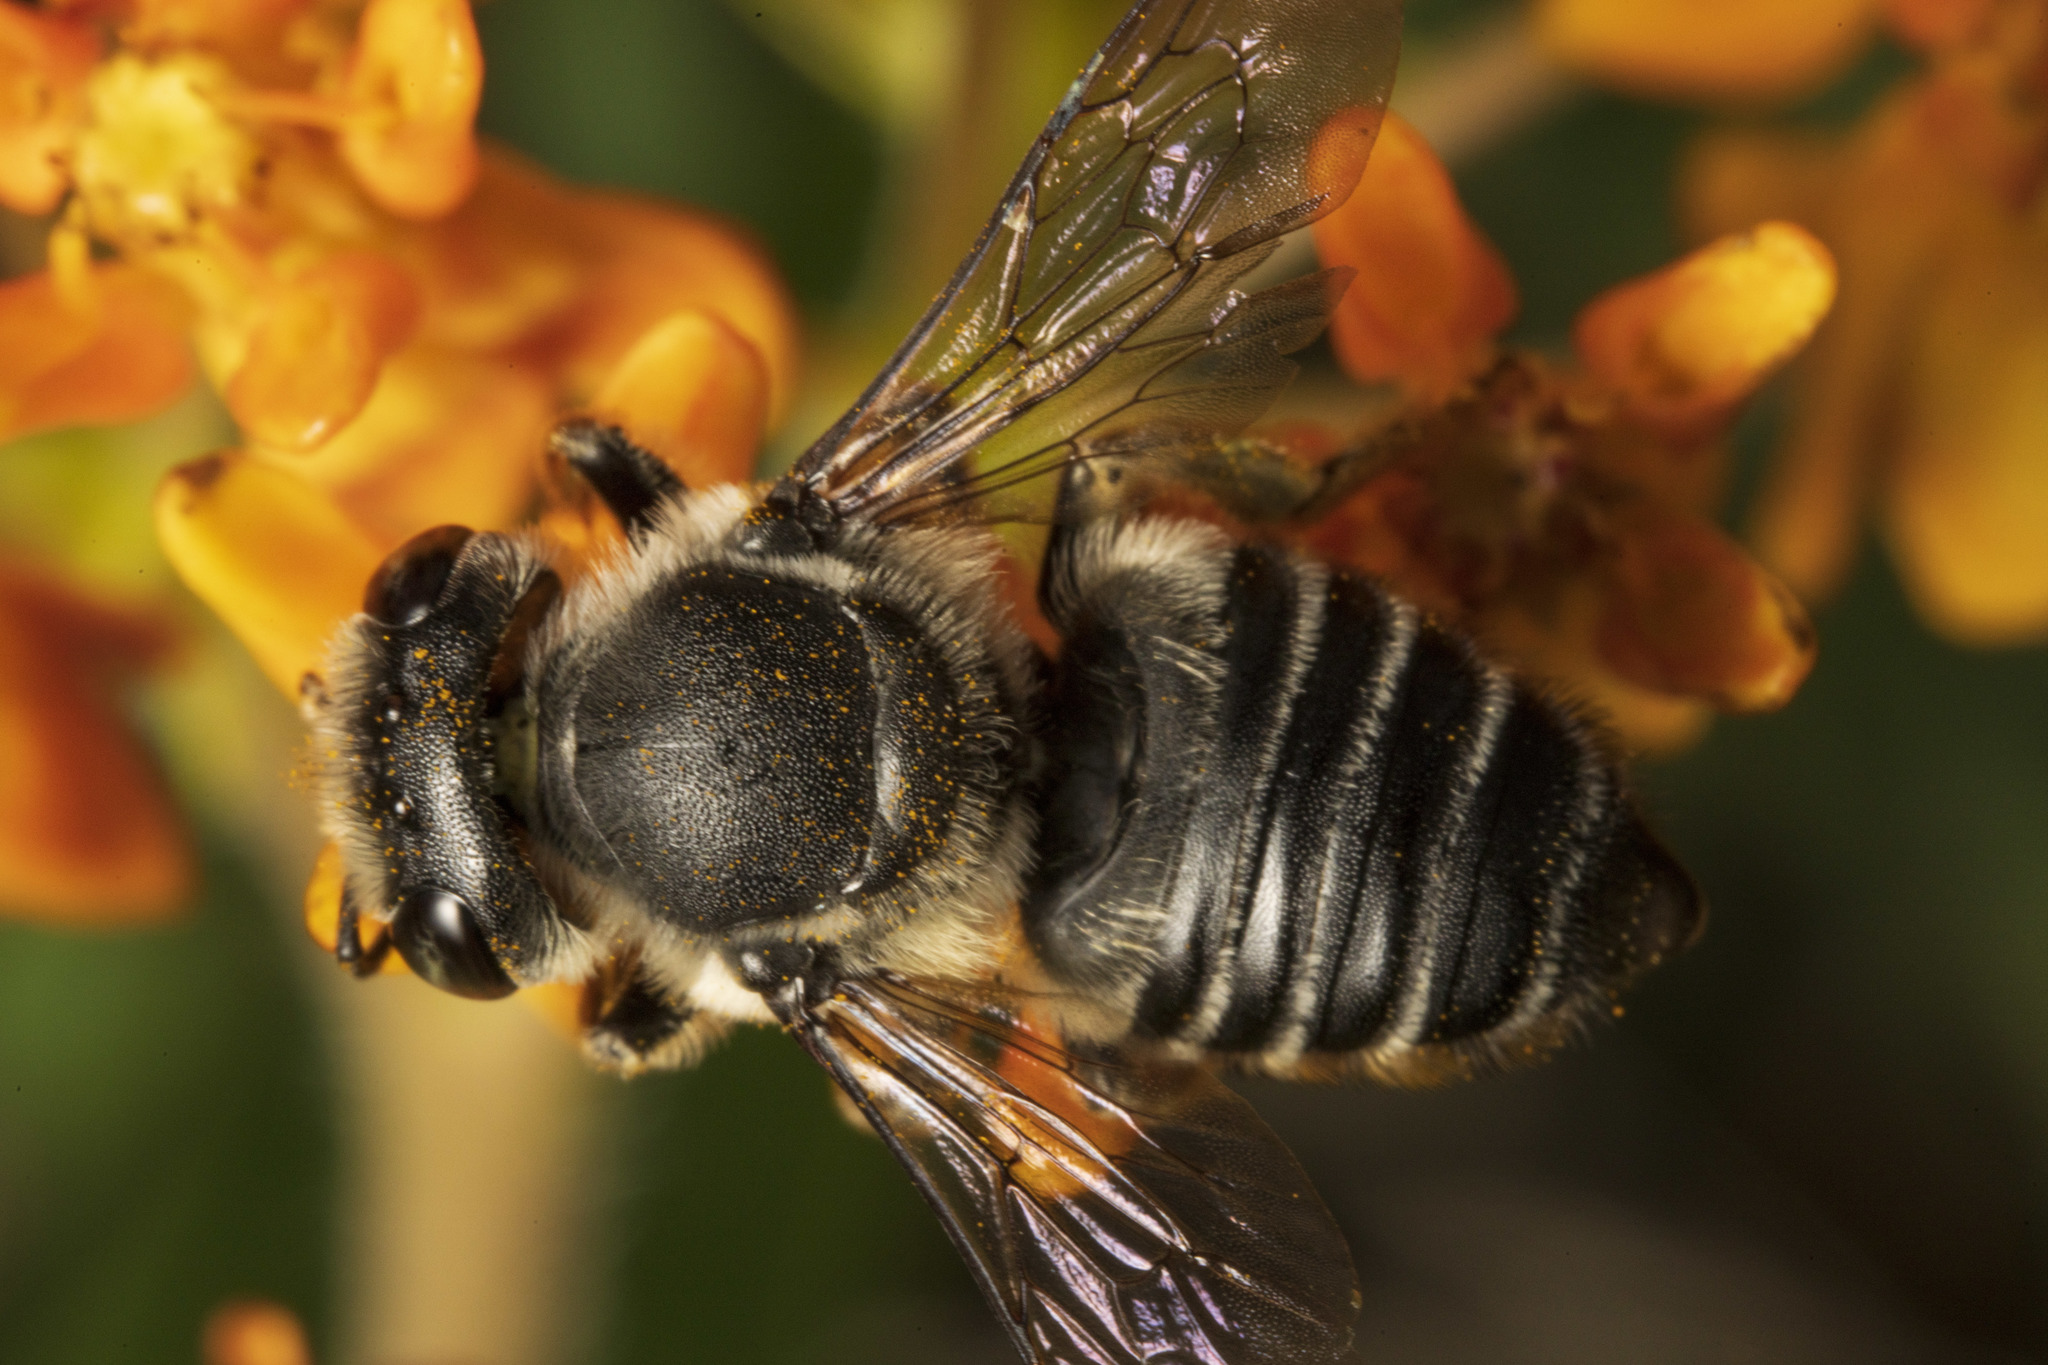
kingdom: Animalia
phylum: Arthropoda
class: Insecta
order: Hymenoptera
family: Megachilidae
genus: Megachile
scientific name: Megachile
